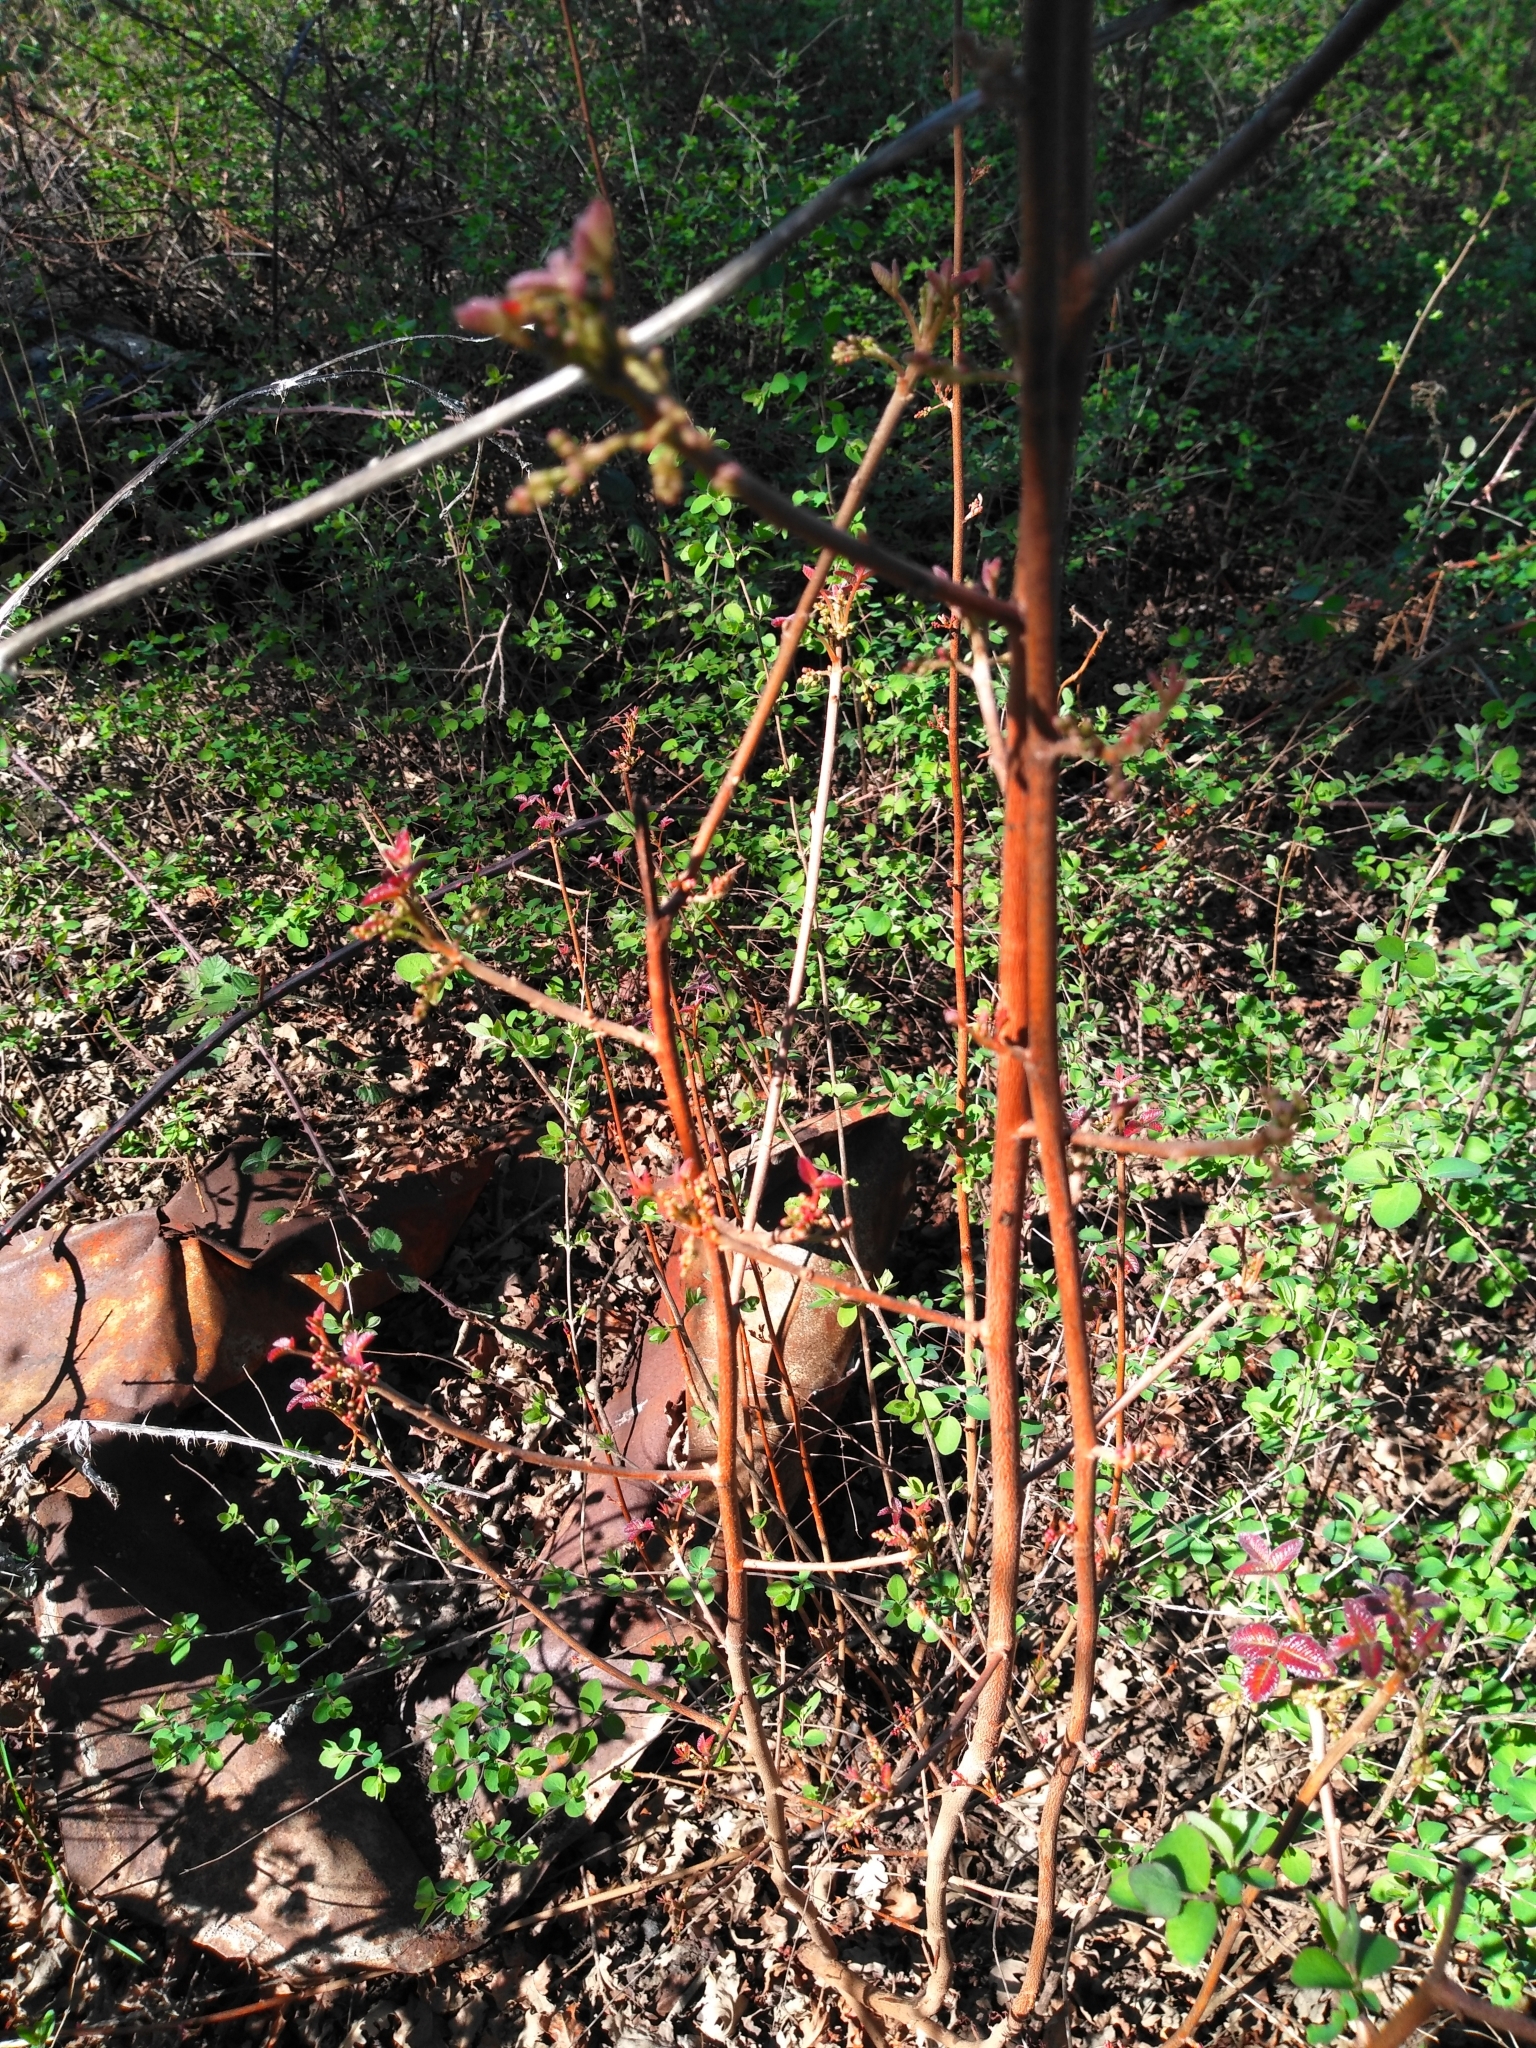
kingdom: Plantae
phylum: Tracheophyta
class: Magnoliopsida
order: Sapindales
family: Anacardiaceae
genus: Toxicodendron
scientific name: Toxicodendron diversilobum
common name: Pacific poison-oak
